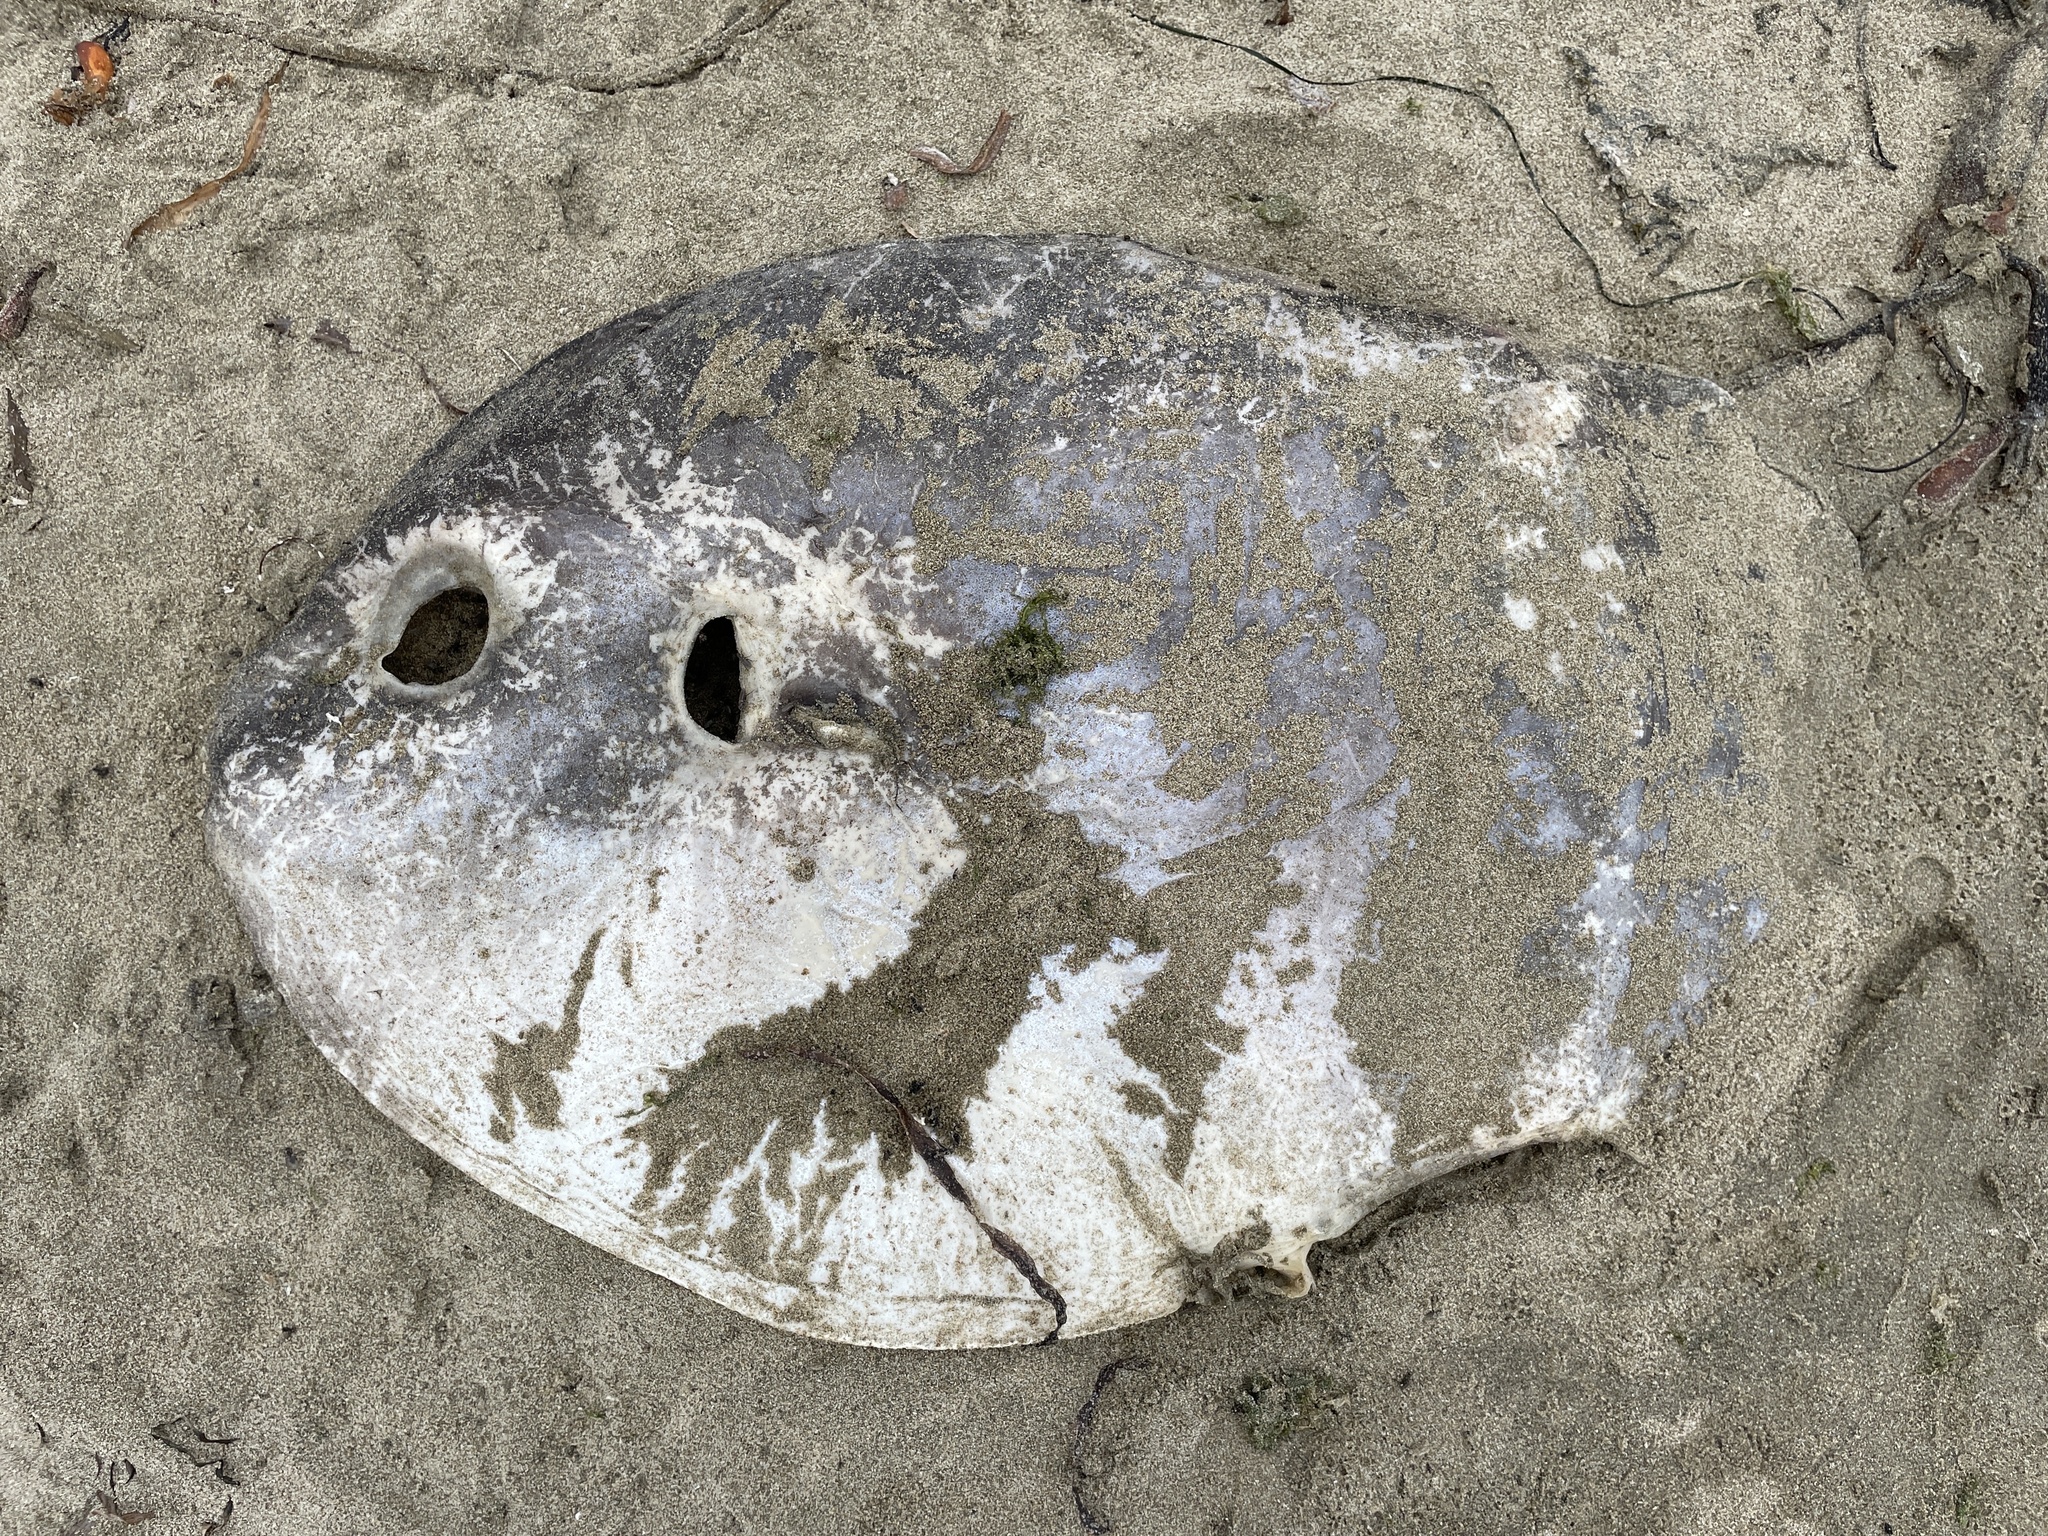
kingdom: Animalia
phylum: Chordata
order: Tetraodontiformes
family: Molidae
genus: Mola
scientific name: Mola mola
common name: Ocean sunfish
